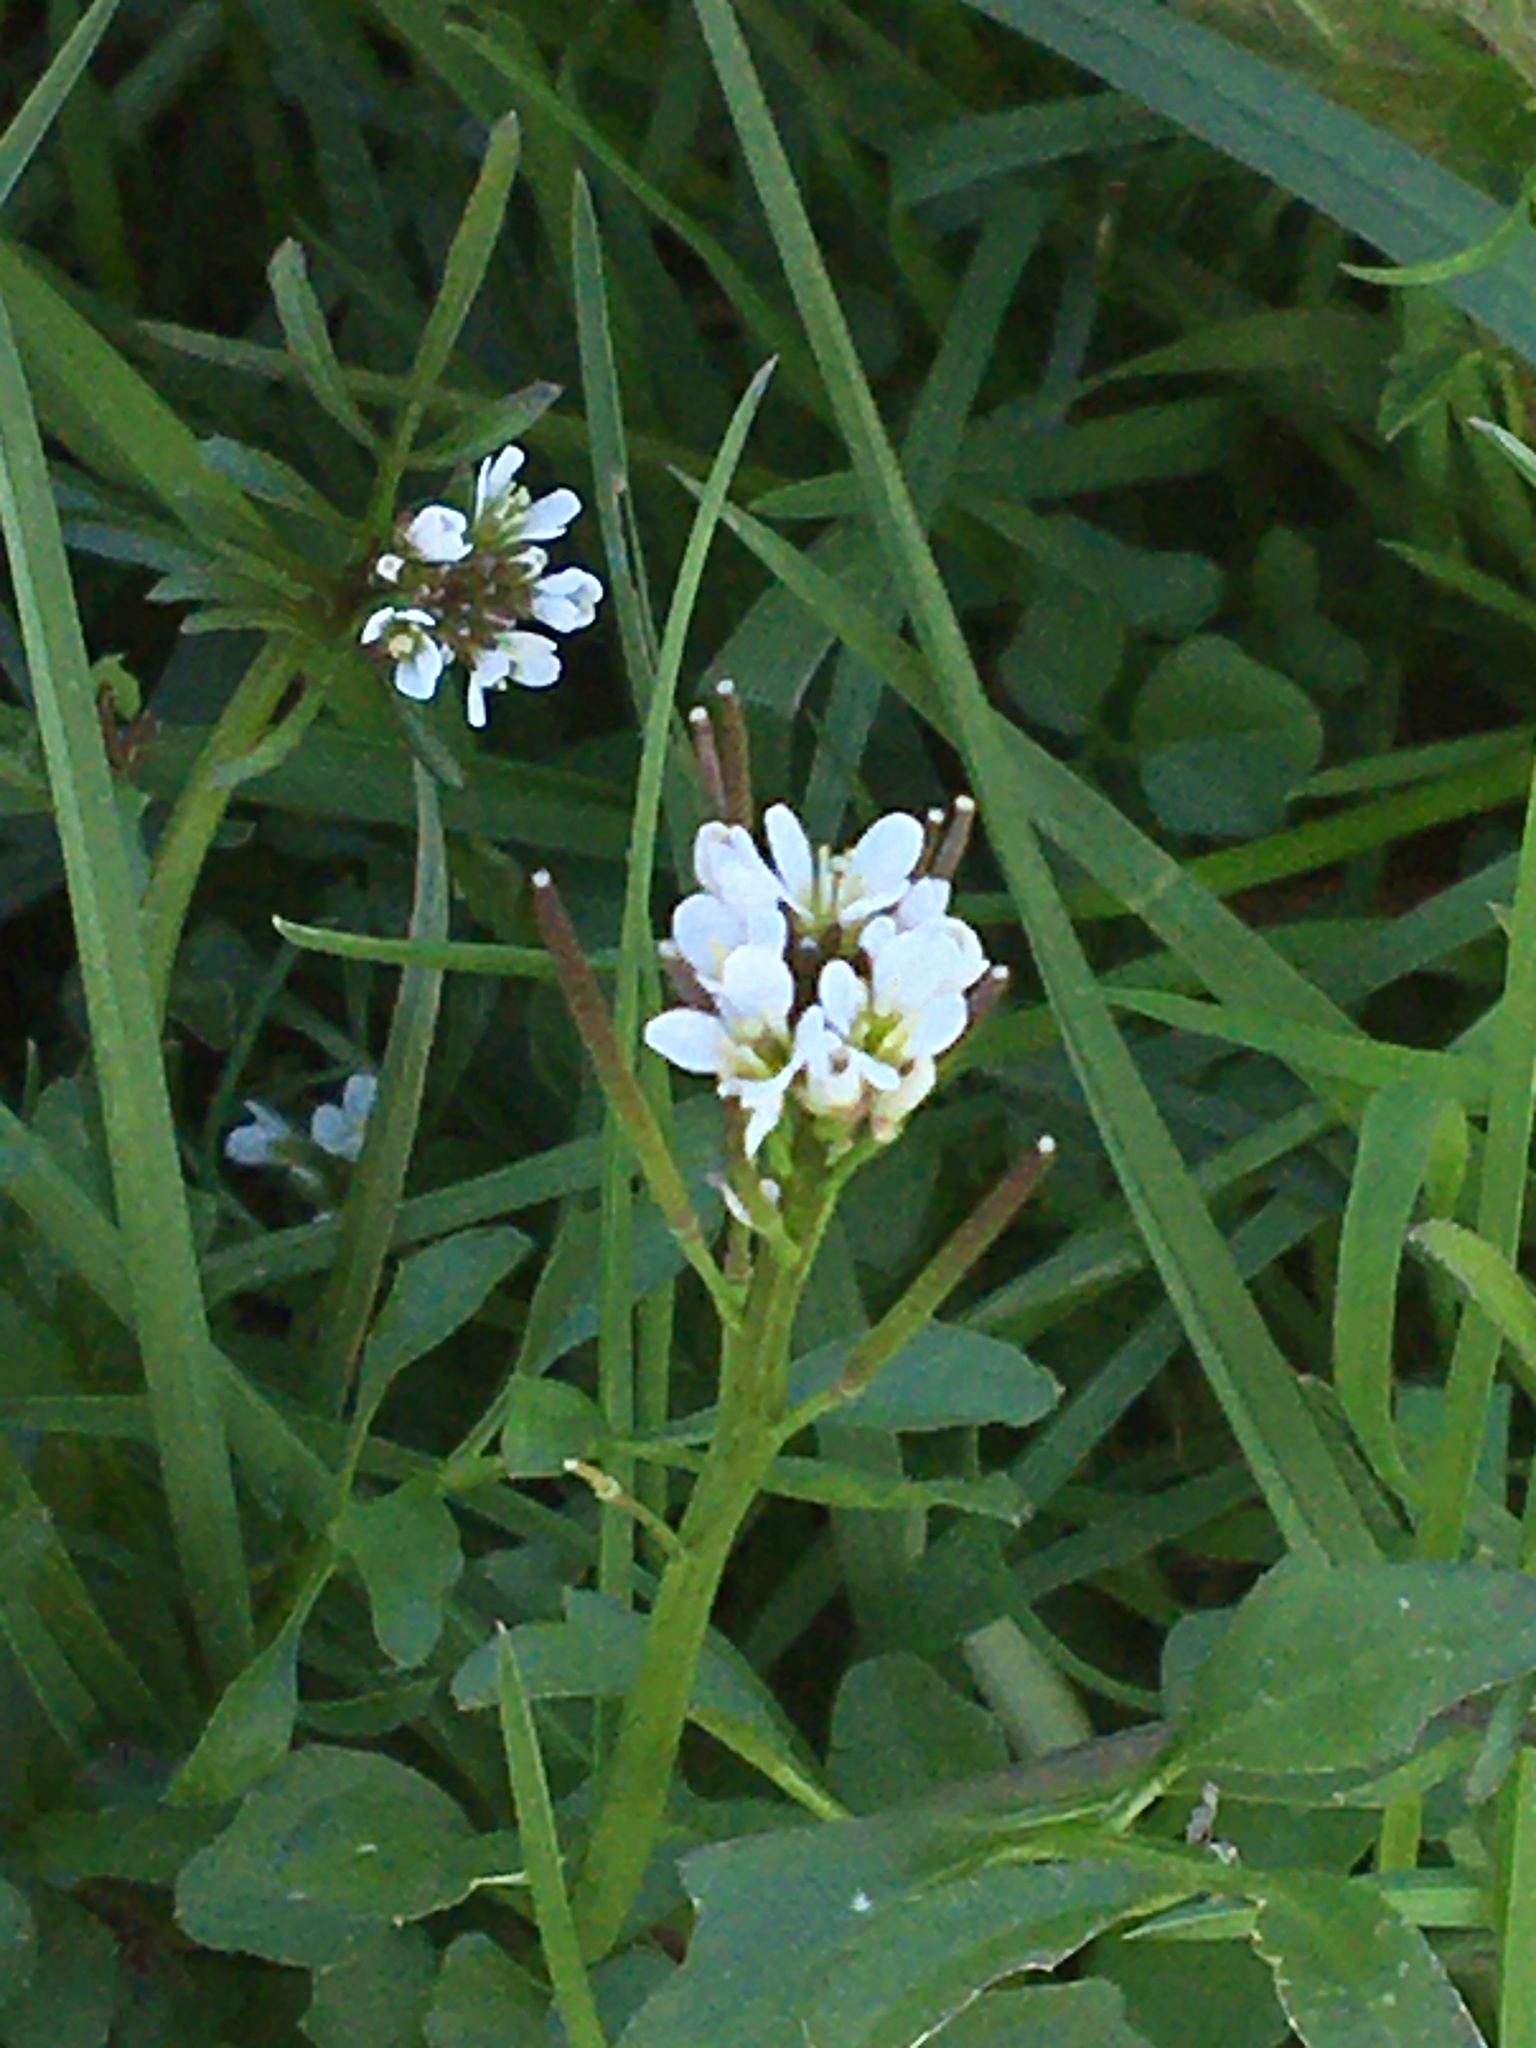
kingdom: Plantae
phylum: Tracheophyta
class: Magnoliopsida
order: Brassicales
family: Brassicaceae
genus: Cardamine
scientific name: Cardamine hirsuta
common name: Hairy bittercress
